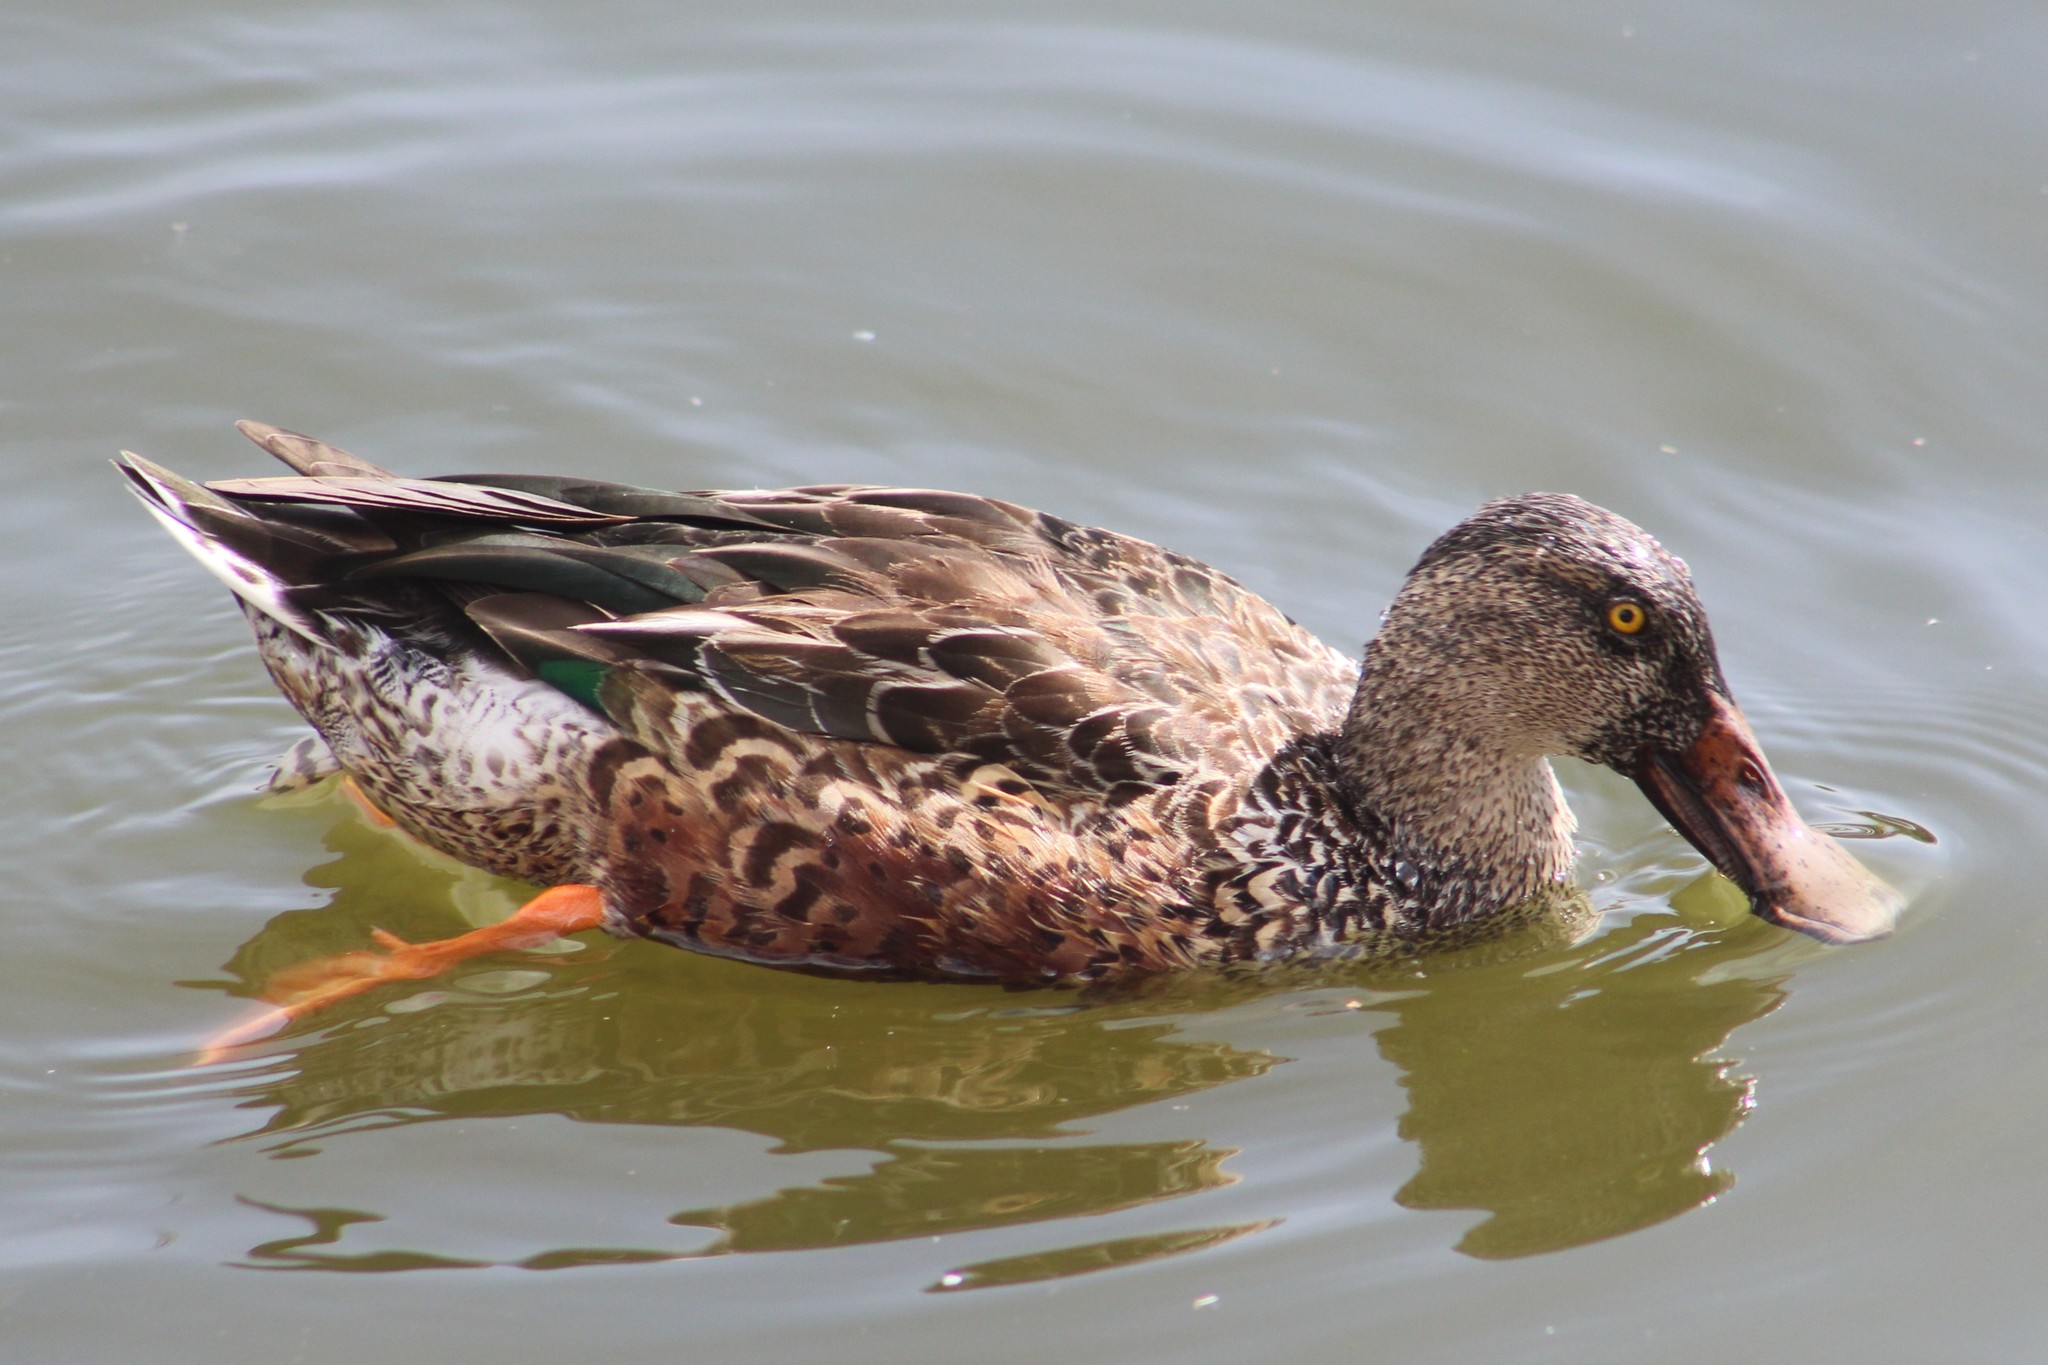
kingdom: Animalia
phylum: Chordata
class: Aves
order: Anseriformes
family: Anatidae
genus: Spatula
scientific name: Spatula clypeata
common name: Northern shoveler
